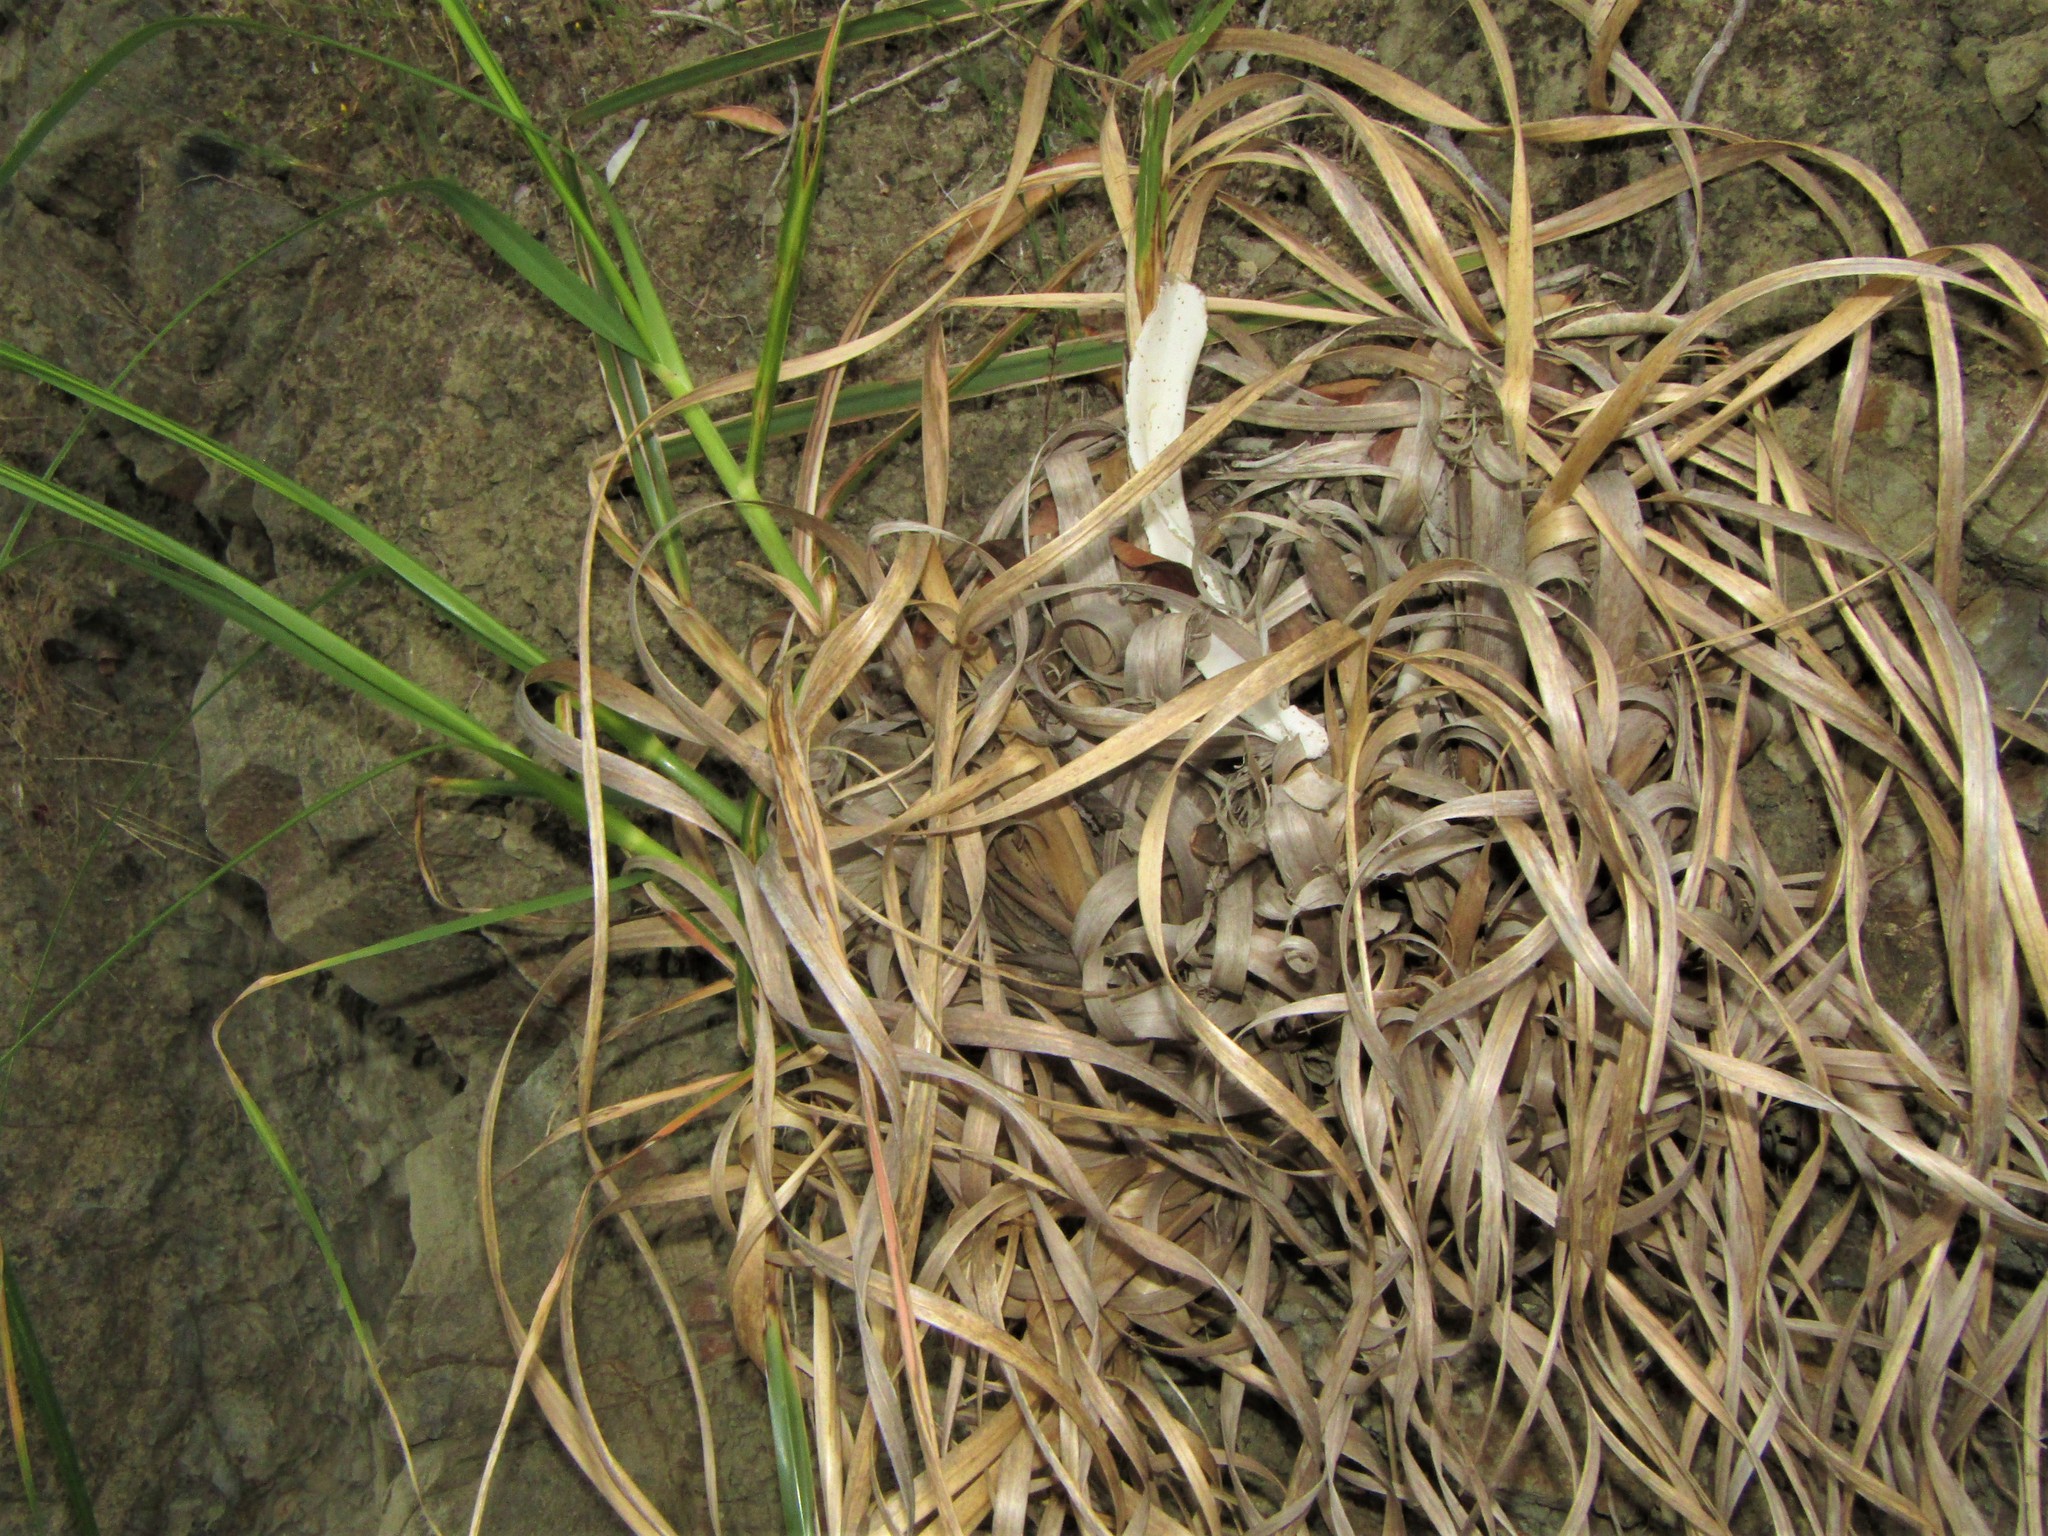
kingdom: Plantae
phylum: Tracheophyta
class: Liliopsida
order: Poales
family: Poaceae
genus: Cortaderia
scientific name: Cortaderia selloana
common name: Uruguayan pampas grass
